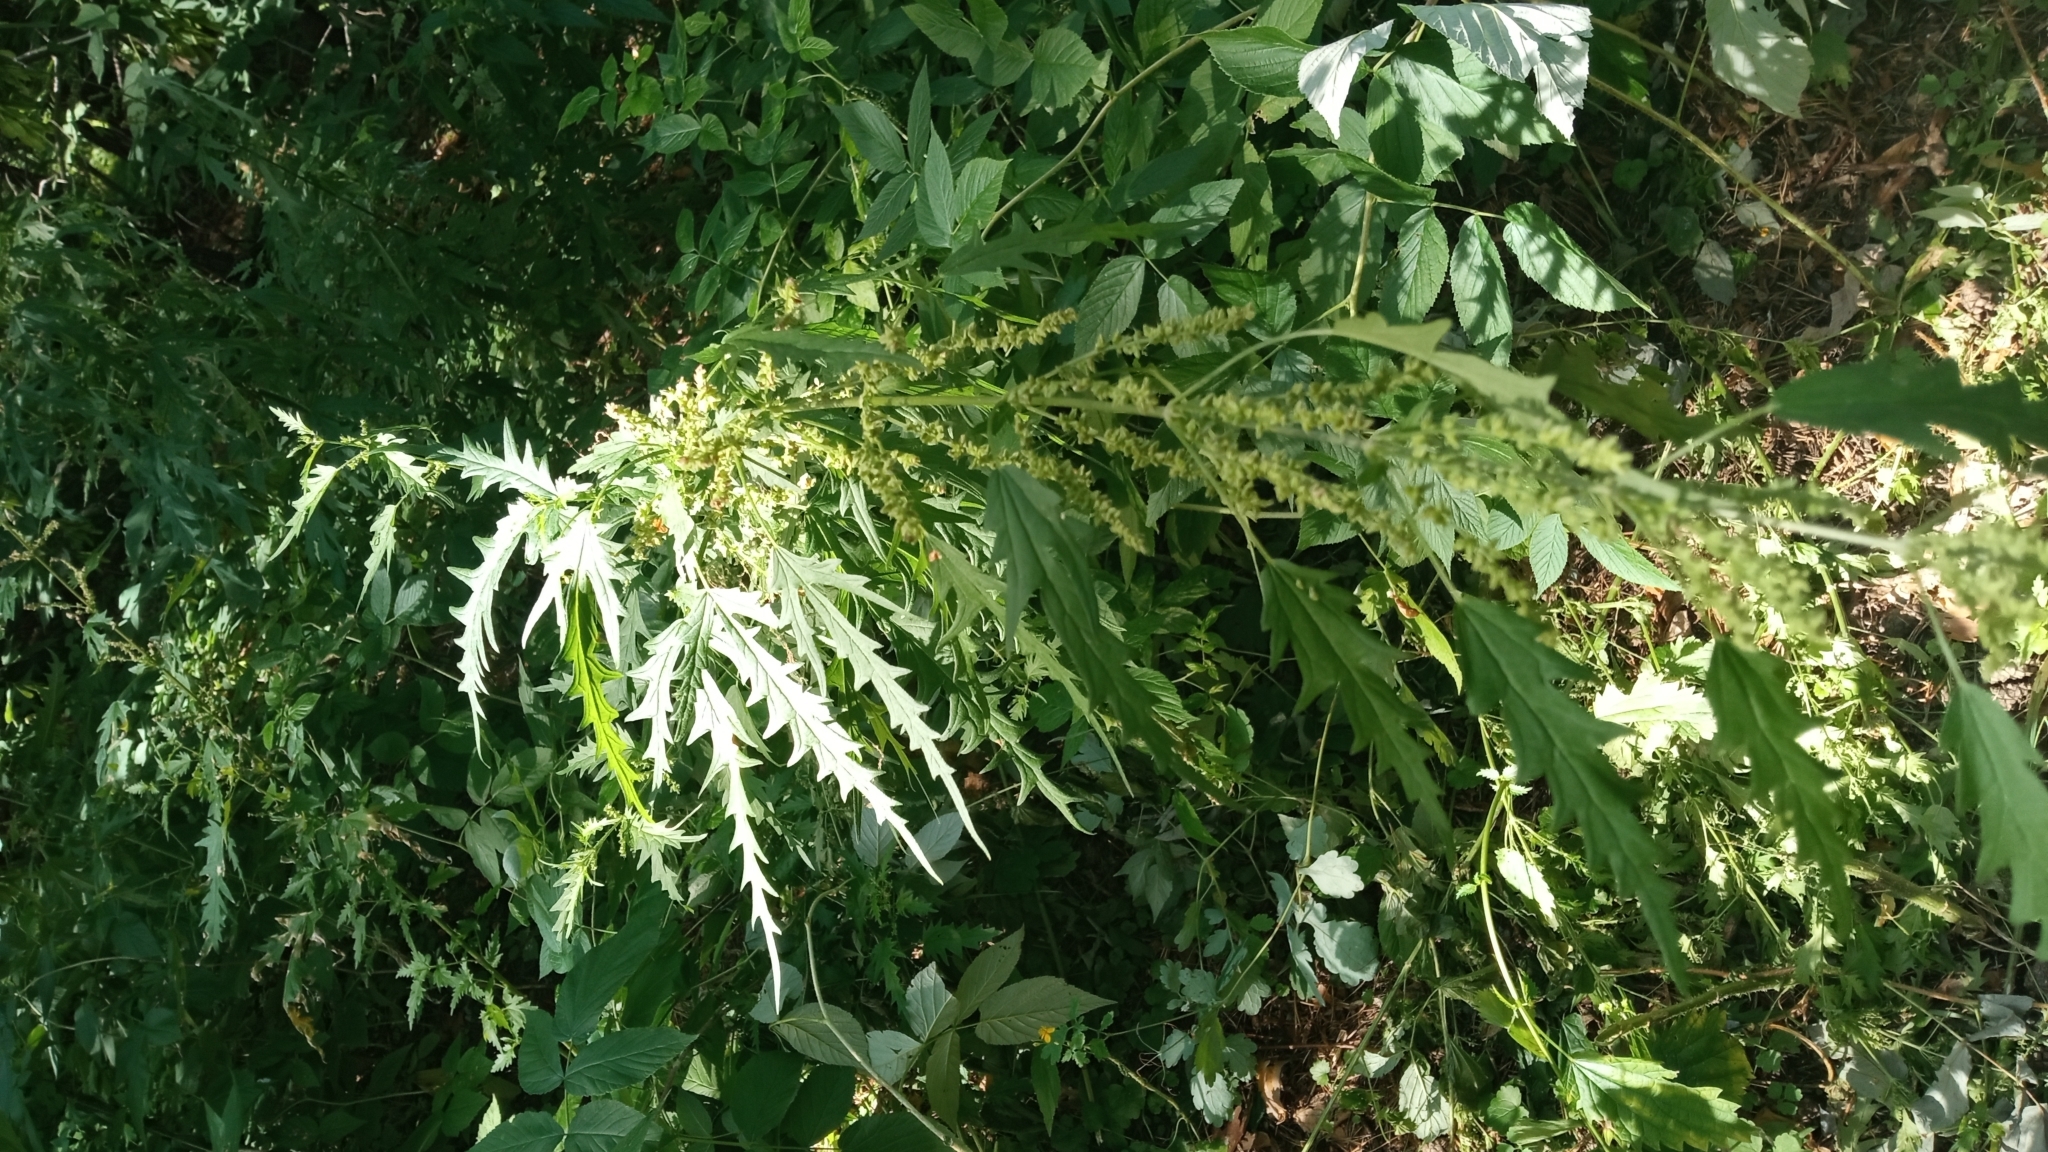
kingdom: Plantae
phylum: Tracheophyta
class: Magnoliopsida
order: Rosales
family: Urticaceae
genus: Urtica
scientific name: Urtica cannabina
